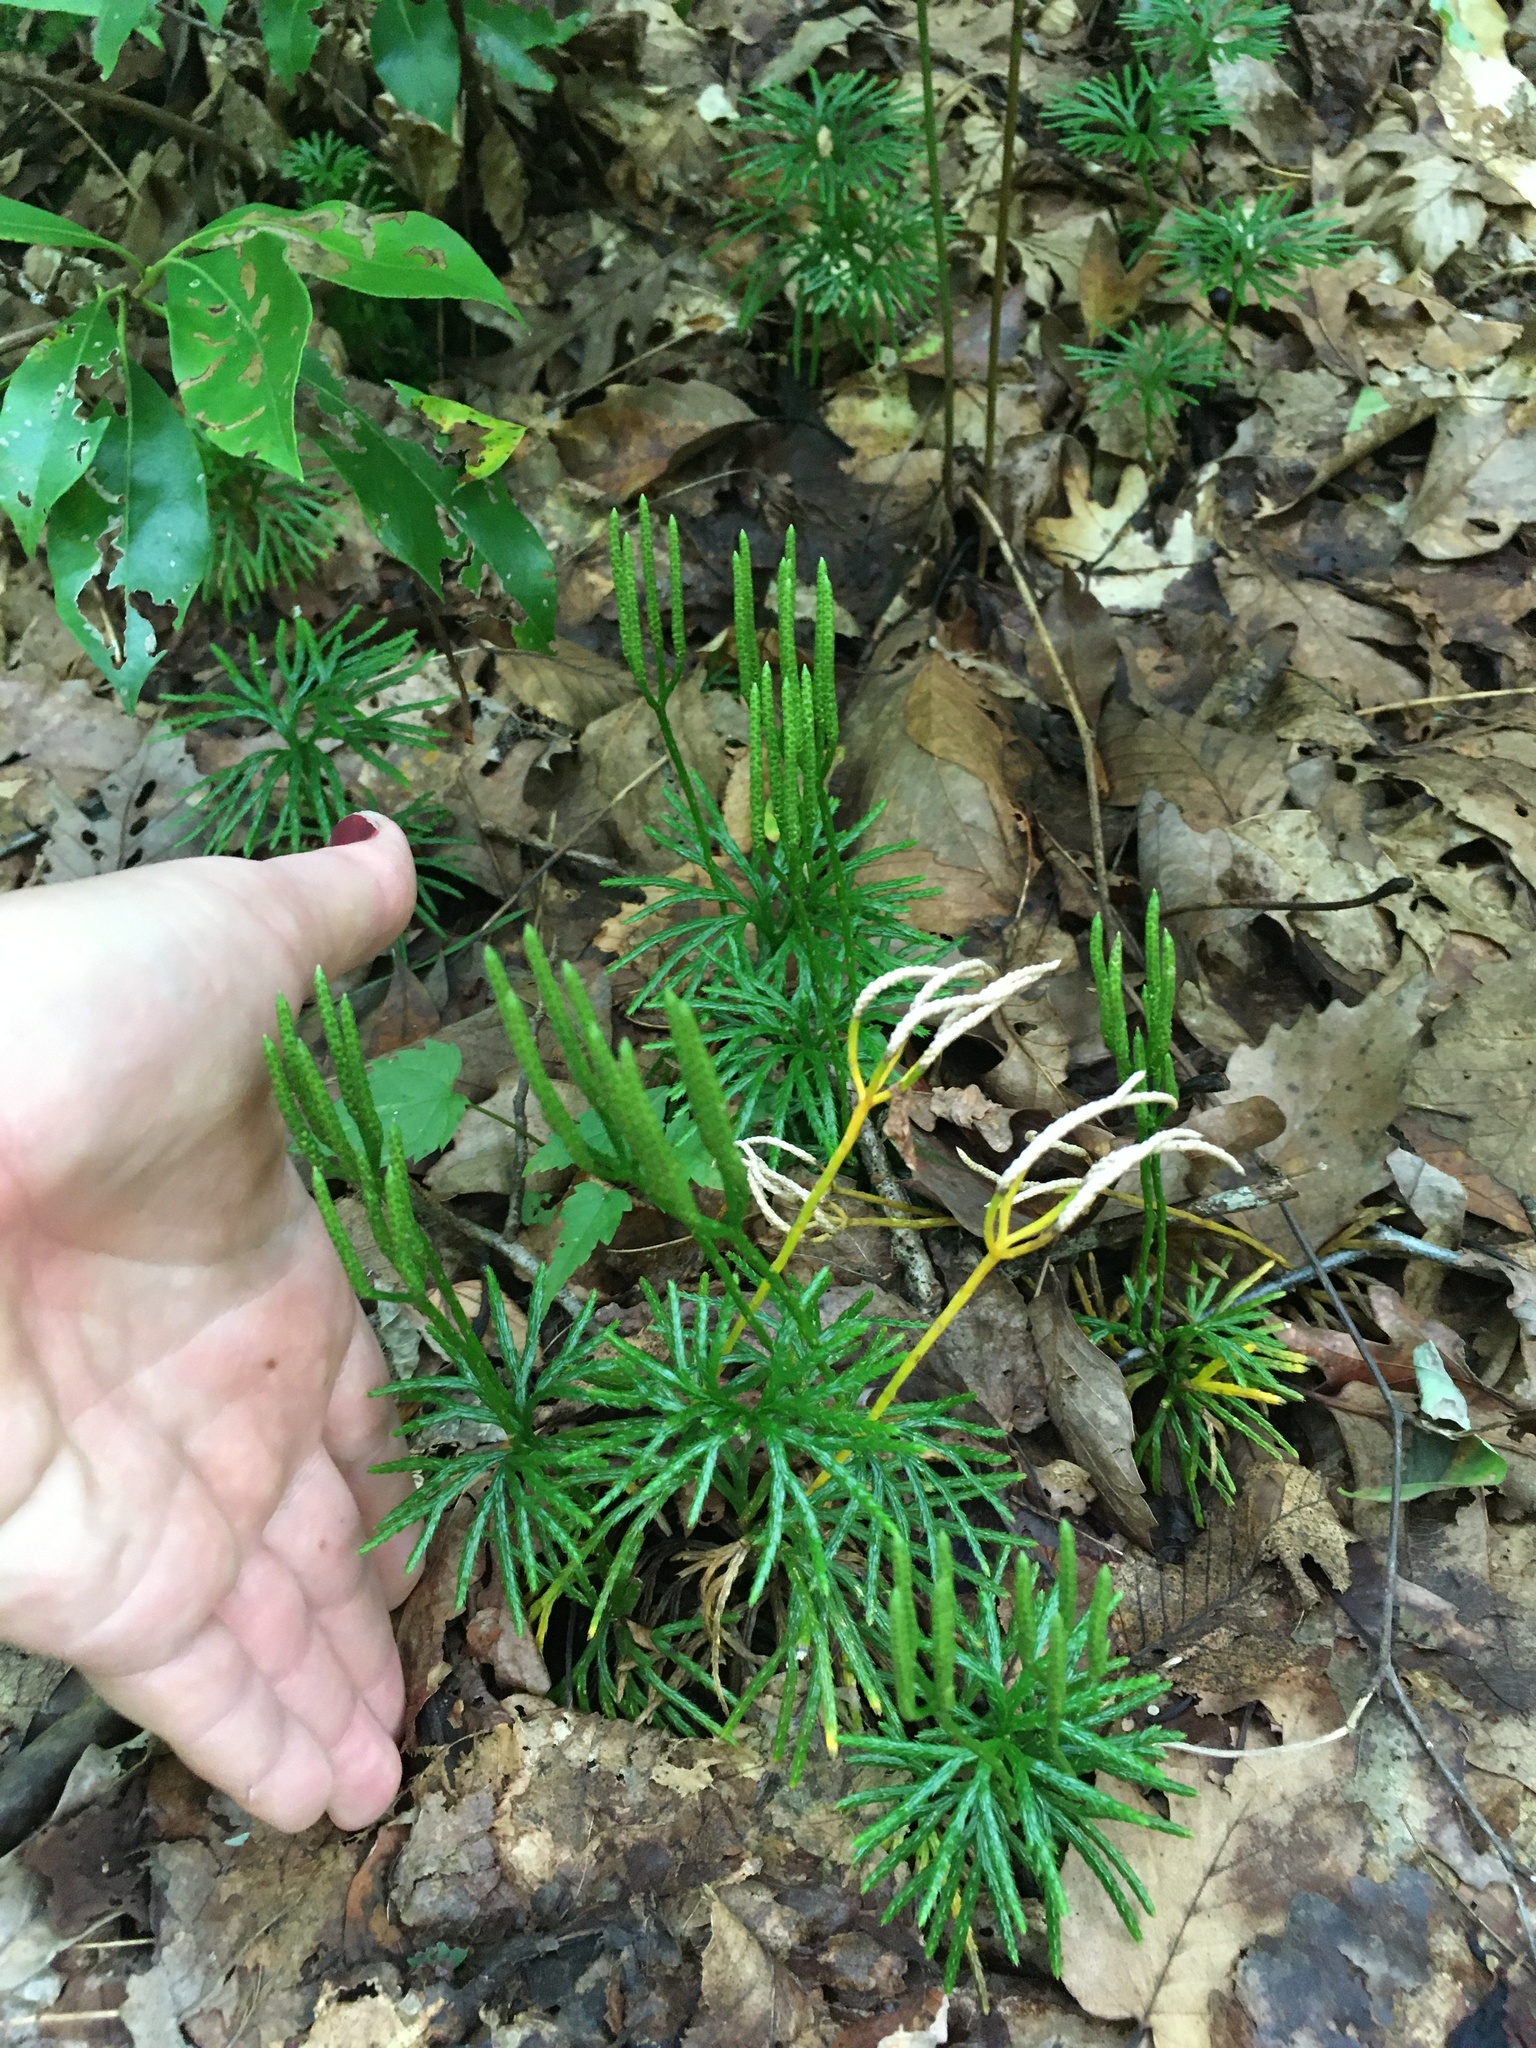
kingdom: Plantae
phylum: Tracheophyta
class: Lycopodiopsida
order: Lycopodiales
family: Lycopodiaceae
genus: Diphasiastrum
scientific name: Diphasiastrum digitatum
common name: Southern running-pine
